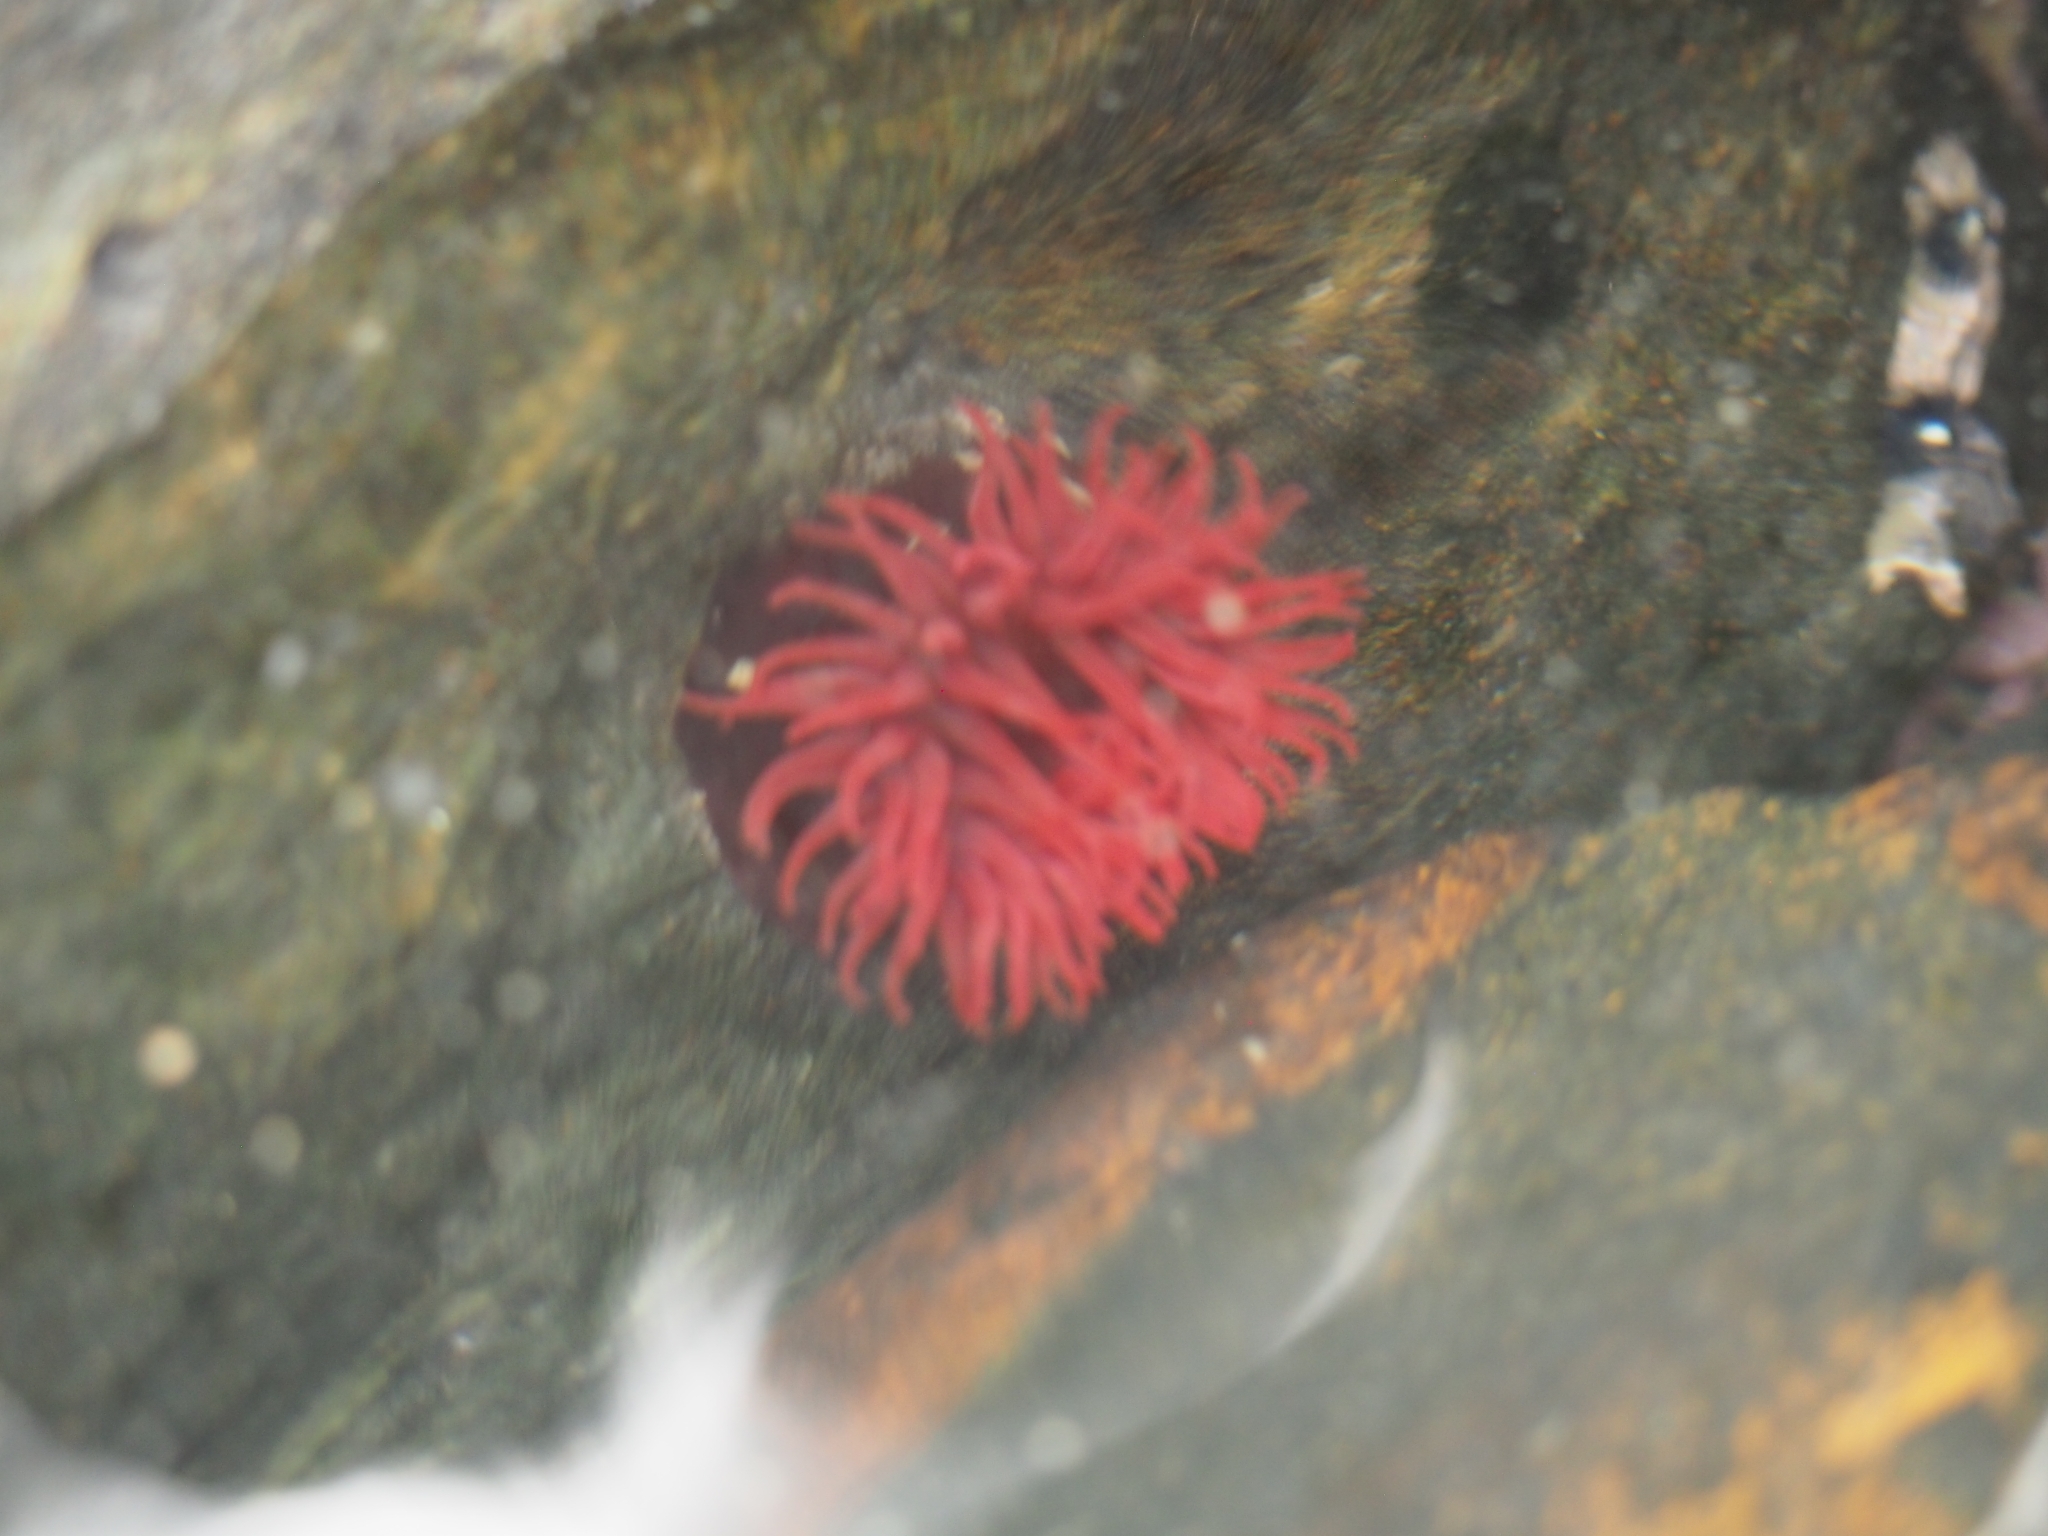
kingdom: Animalia
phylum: Cnidaria
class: Anthozoa
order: Actiniaria
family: Actiniidae
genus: Actinia
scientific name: Actinia tenebrosa
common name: Waratah anemone
